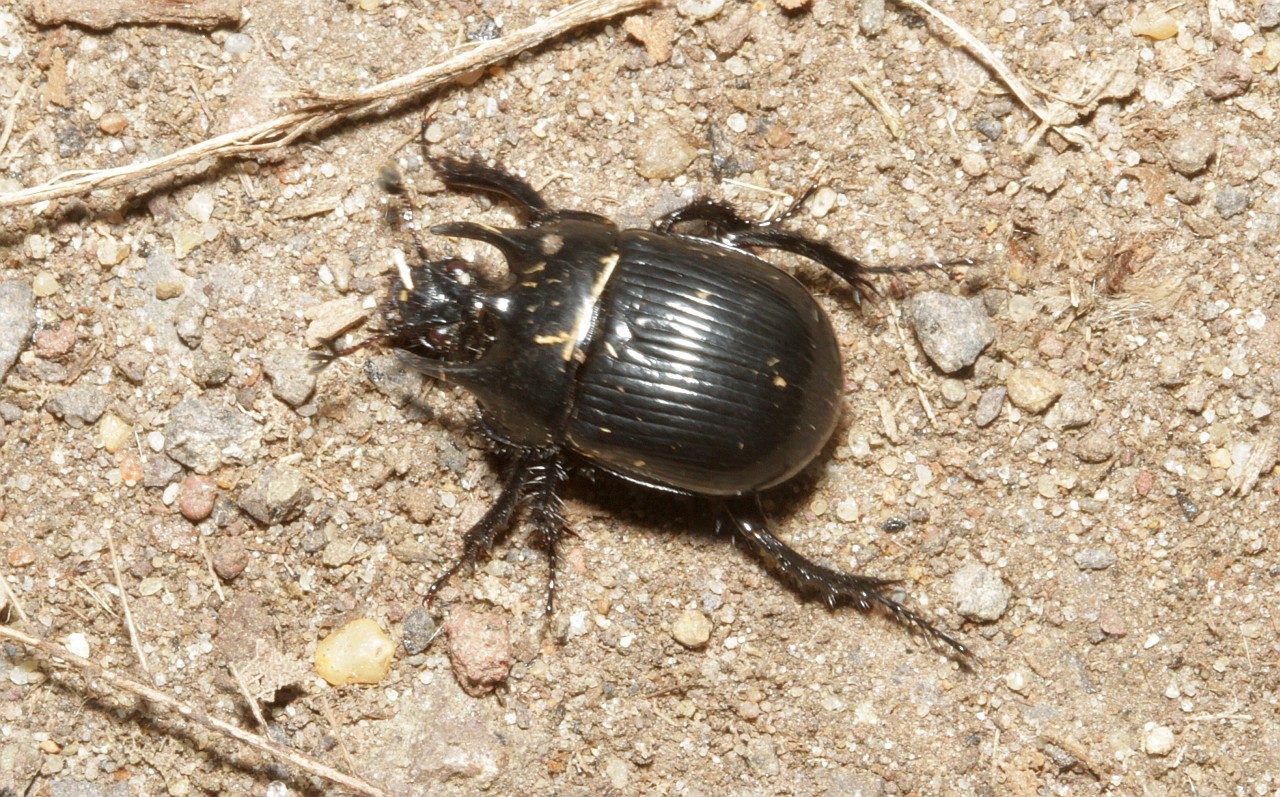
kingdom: Animalia
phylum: Arthropoda
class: Insecta
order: Coleoptera
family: Geotrupidae
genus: Typhaeus
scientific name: Typhaeus typhoeus
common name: Minotaur beetle
